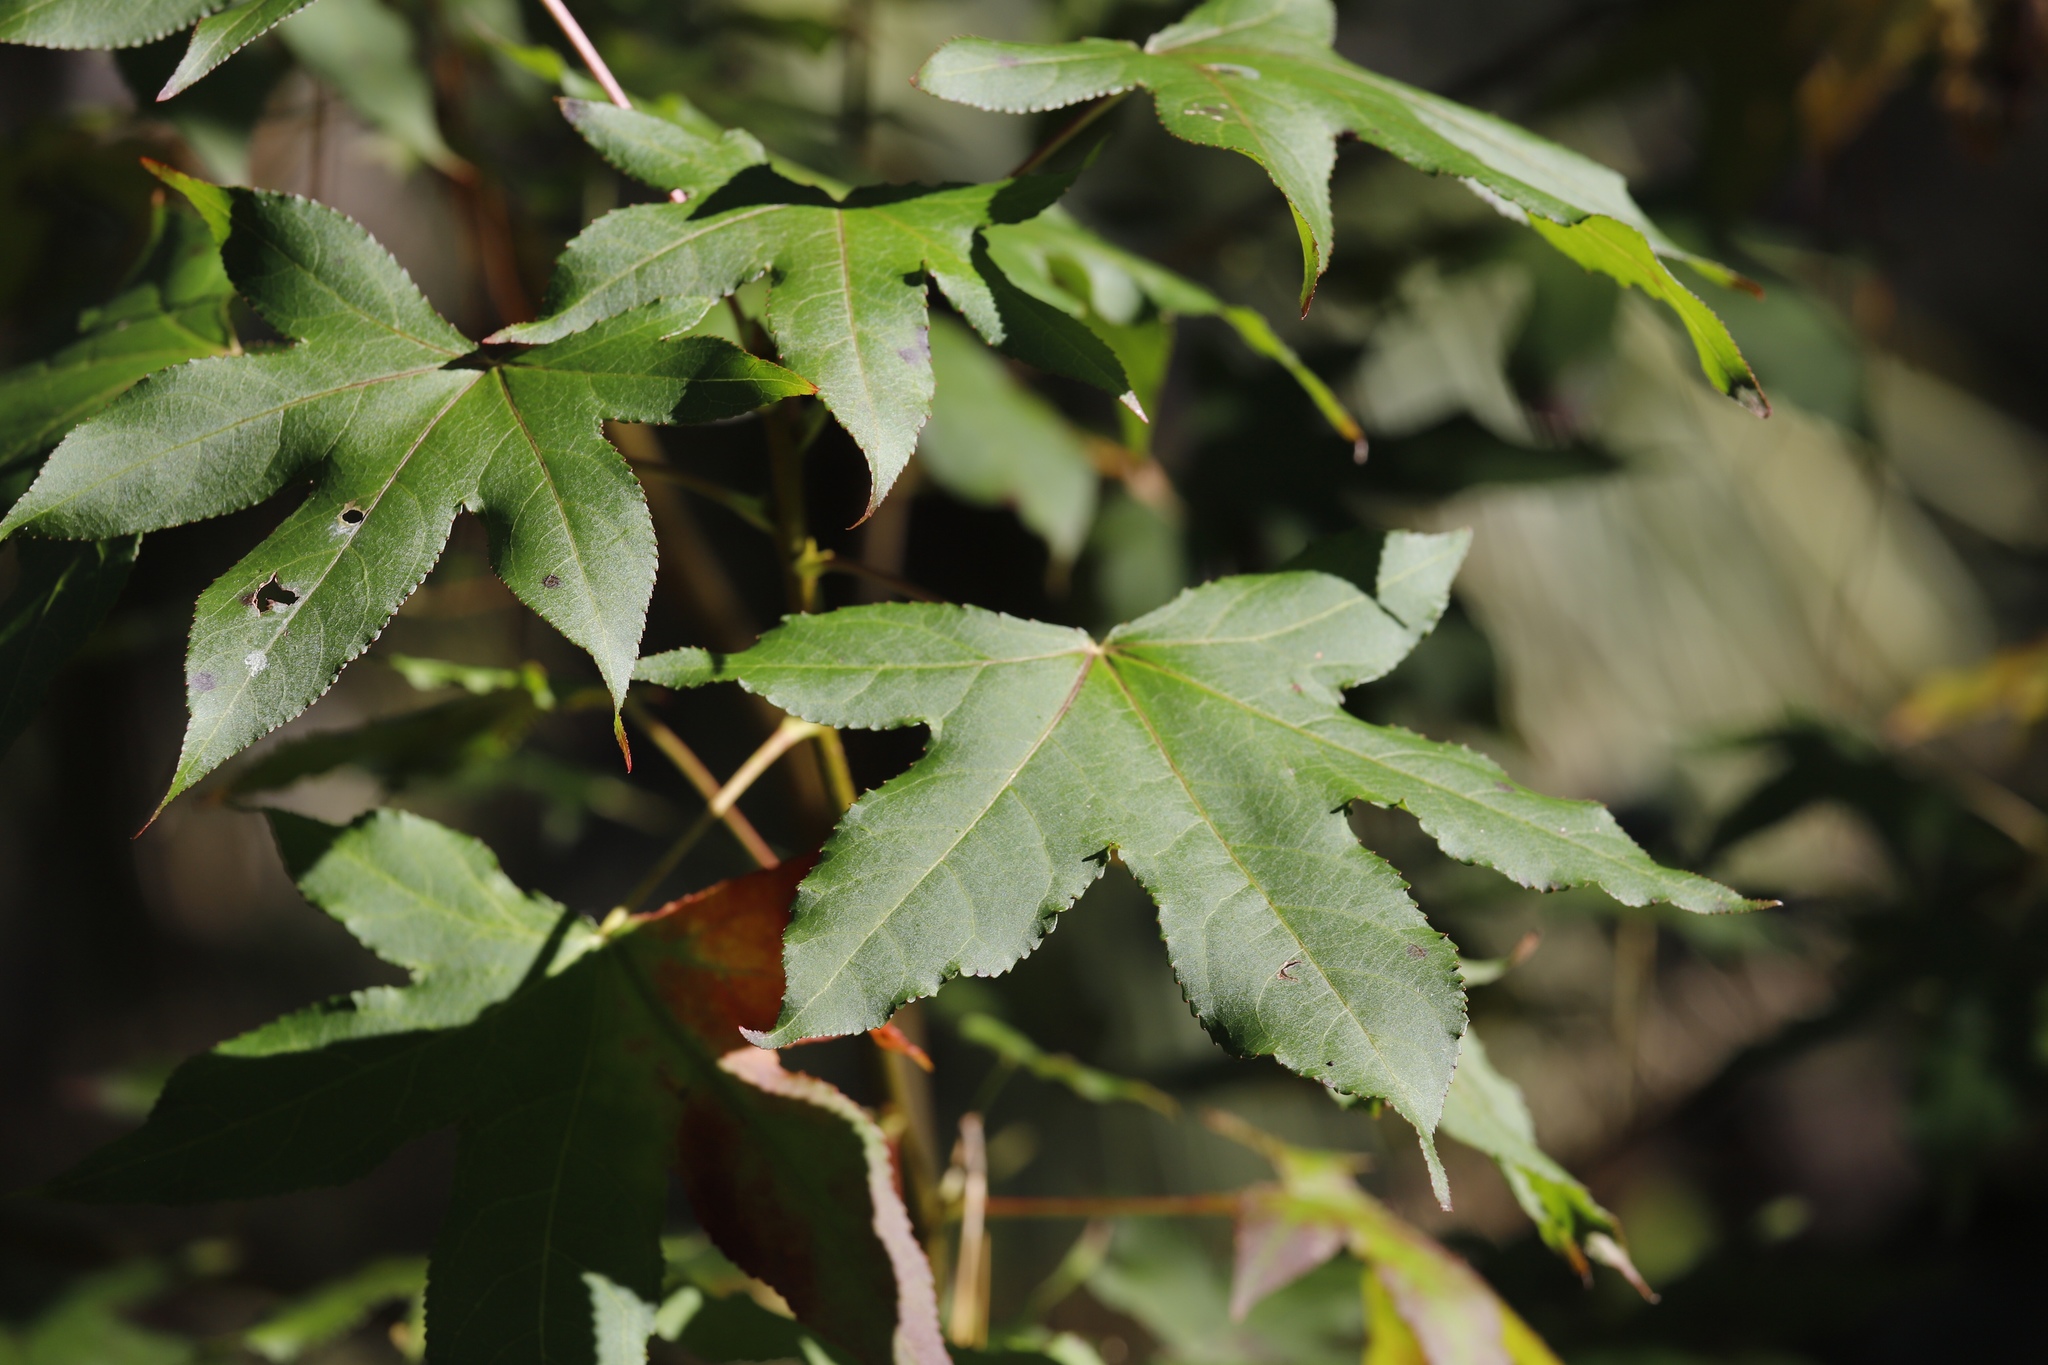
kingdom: Plantae
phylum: Tracheophyta
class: Magnoliopsida
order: Saxifragales
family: Altingiaceae
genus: Liquidambar
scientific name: Liquidambar styraciflua
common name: Sweet gum
